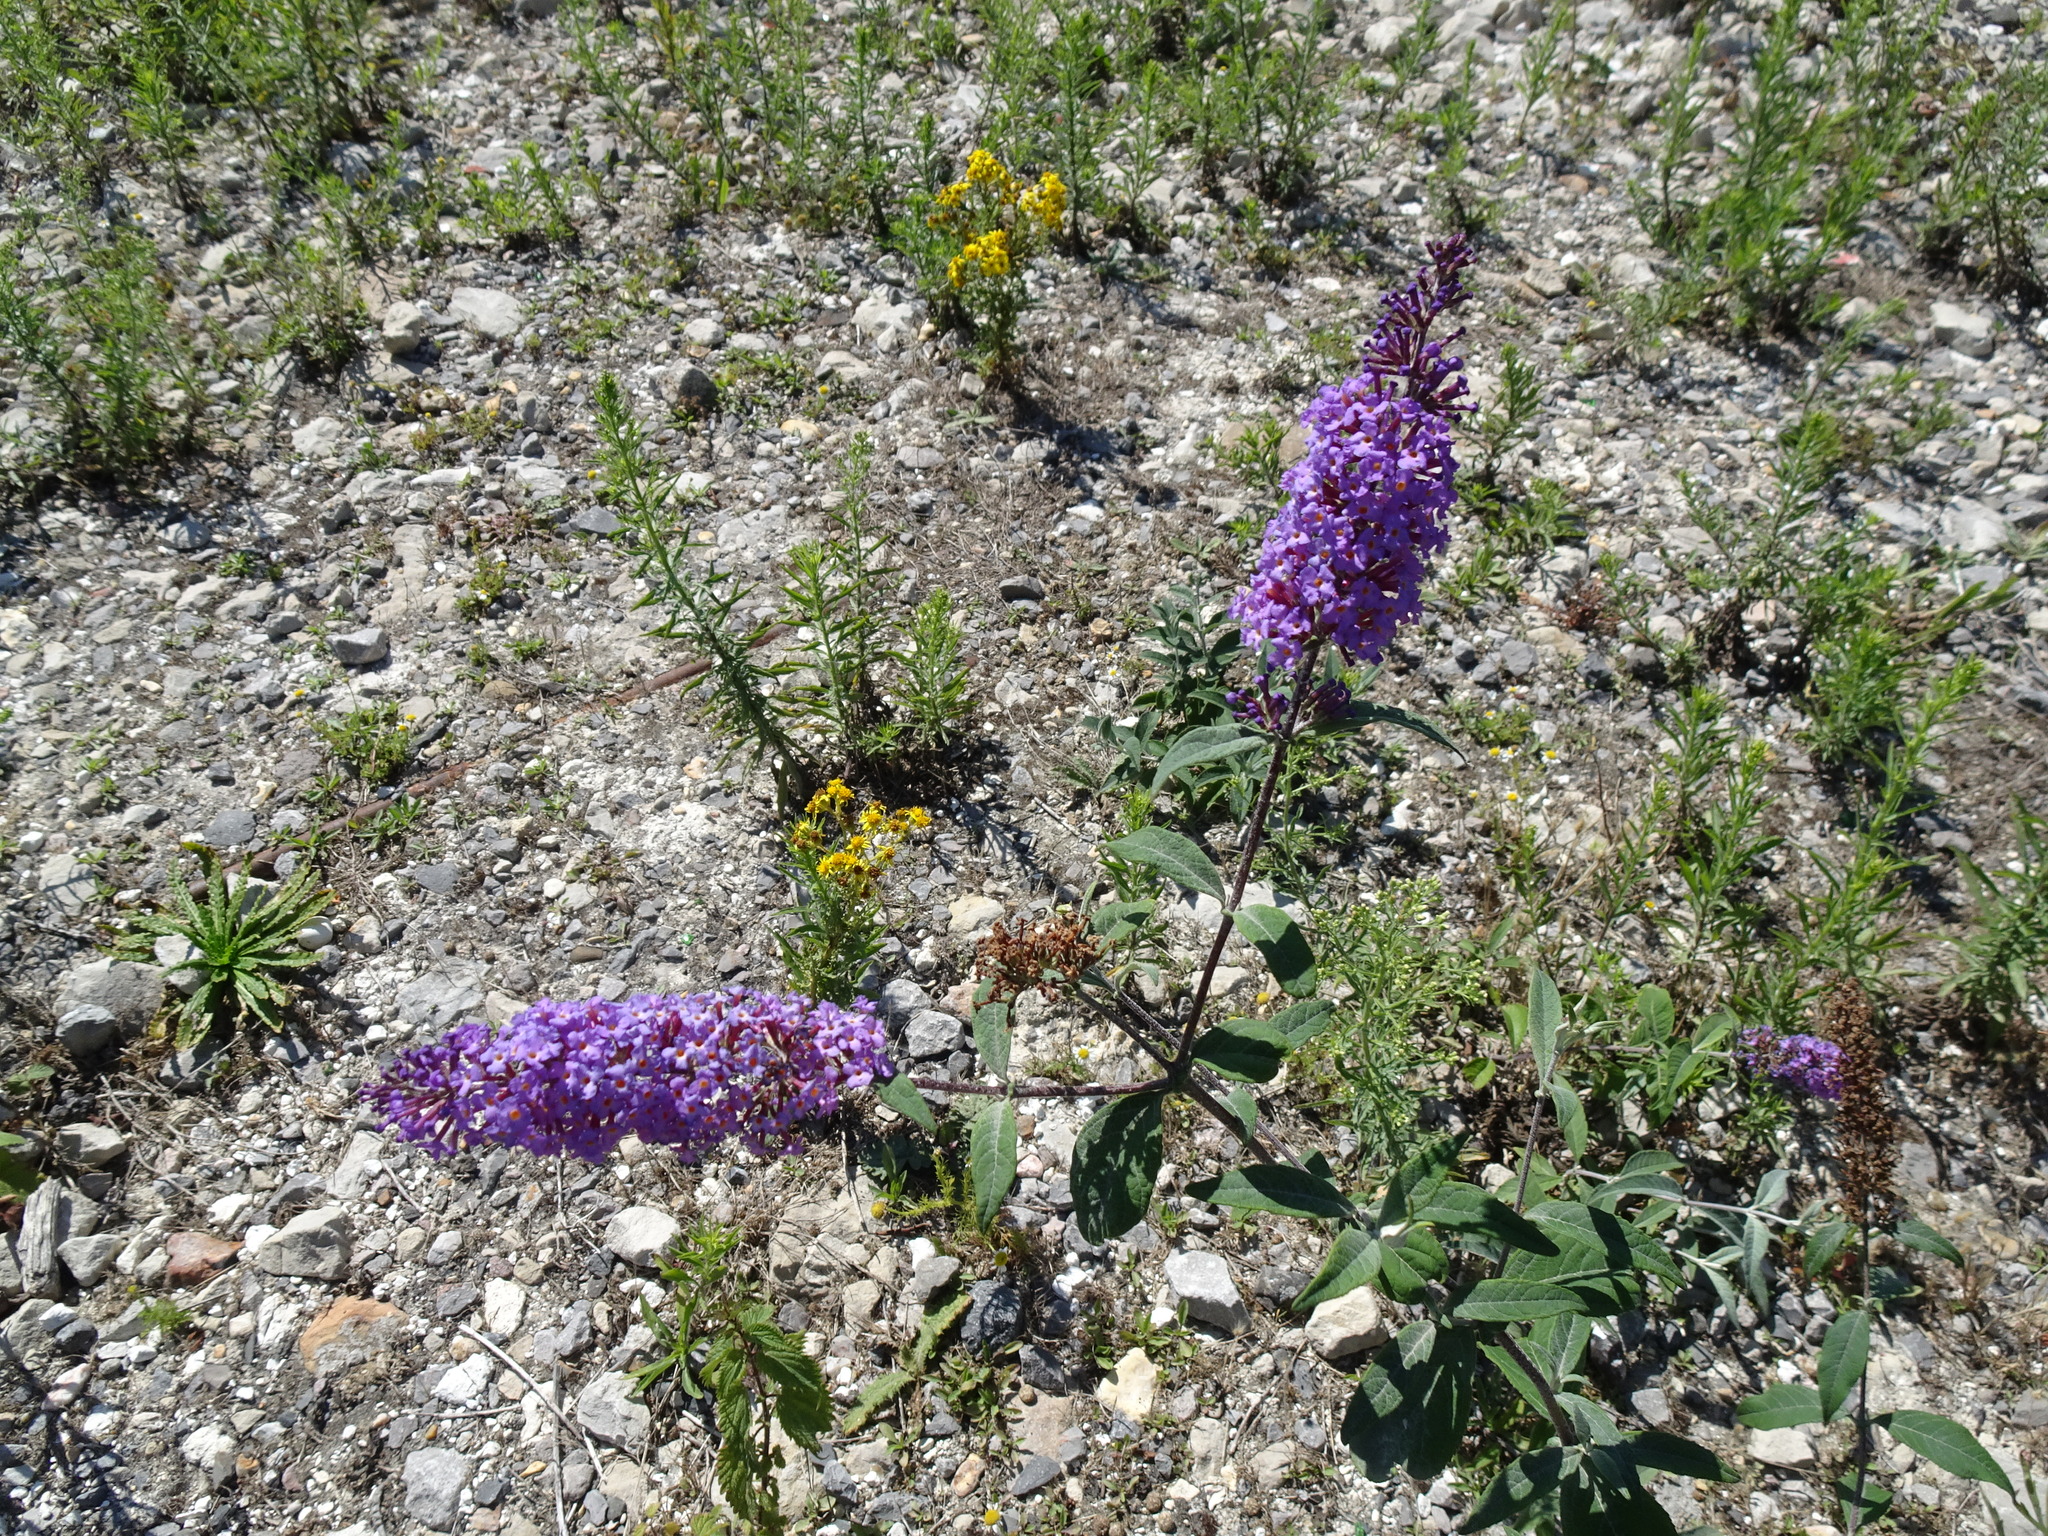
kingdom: Plantae
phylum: Tracheophyta
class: Magnoliopsida
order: Lamiales
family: Scrophulariaceae
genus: Buddleja
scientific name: Buddleja davidii
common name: Butterfly-bush
